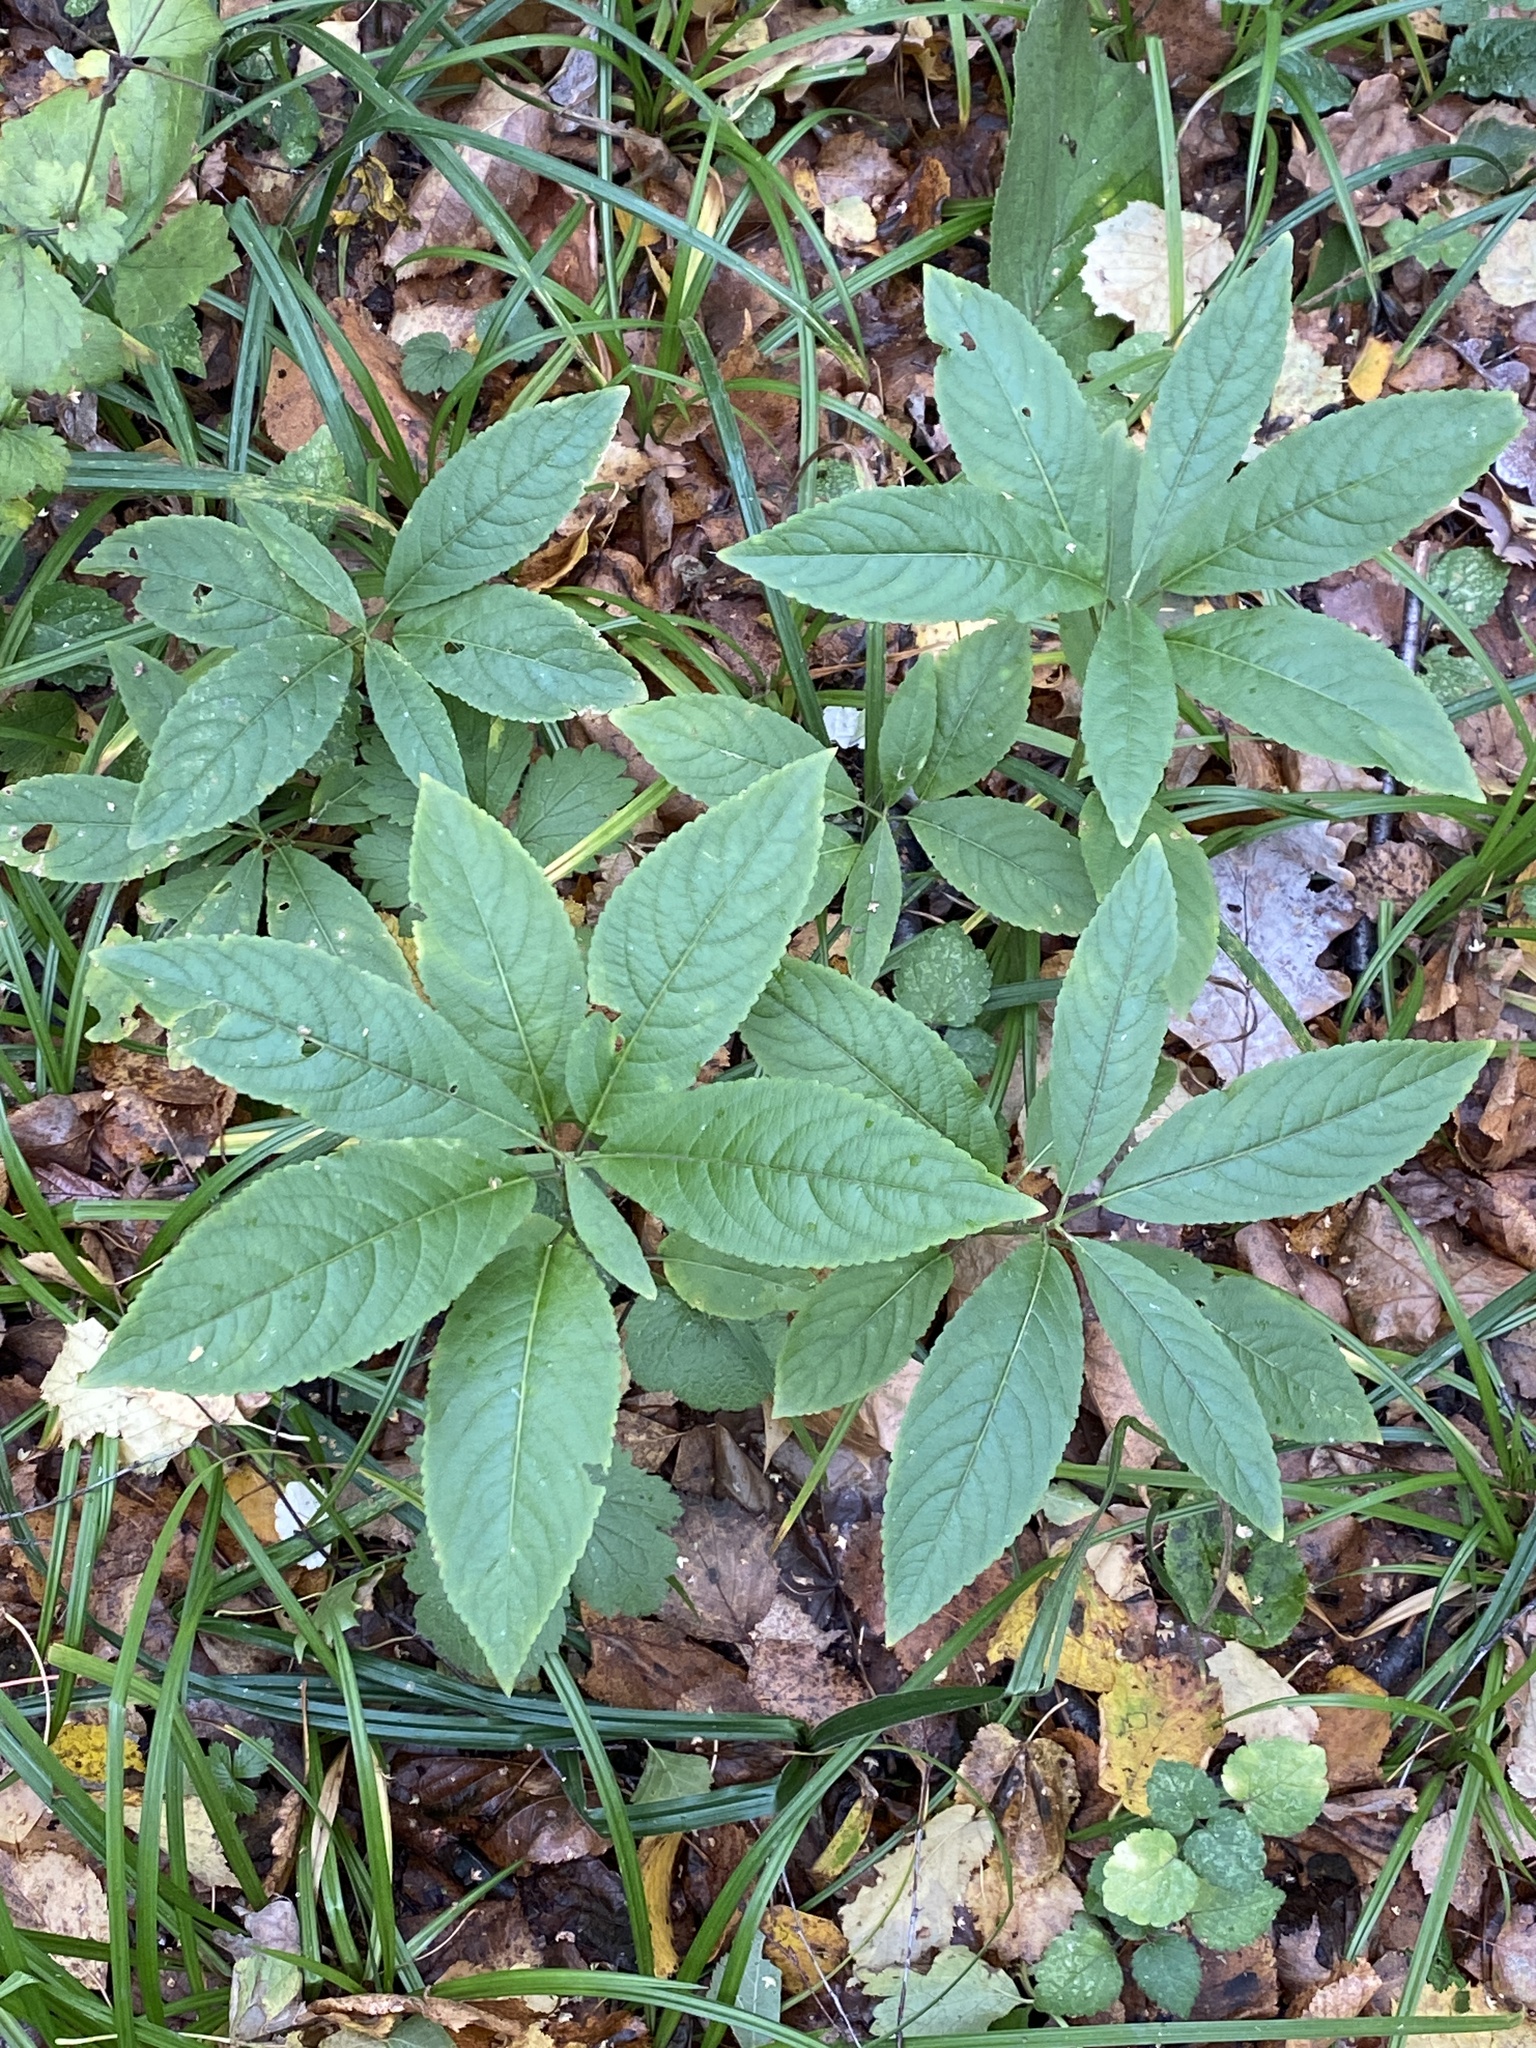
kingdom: Plantae
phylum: Tracheophyta
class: Magnoliopsida
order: Malpighiales
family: Euphorbiaceae
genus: Mercurialis
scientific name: Mercurialis perennis
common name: Dog mercury
